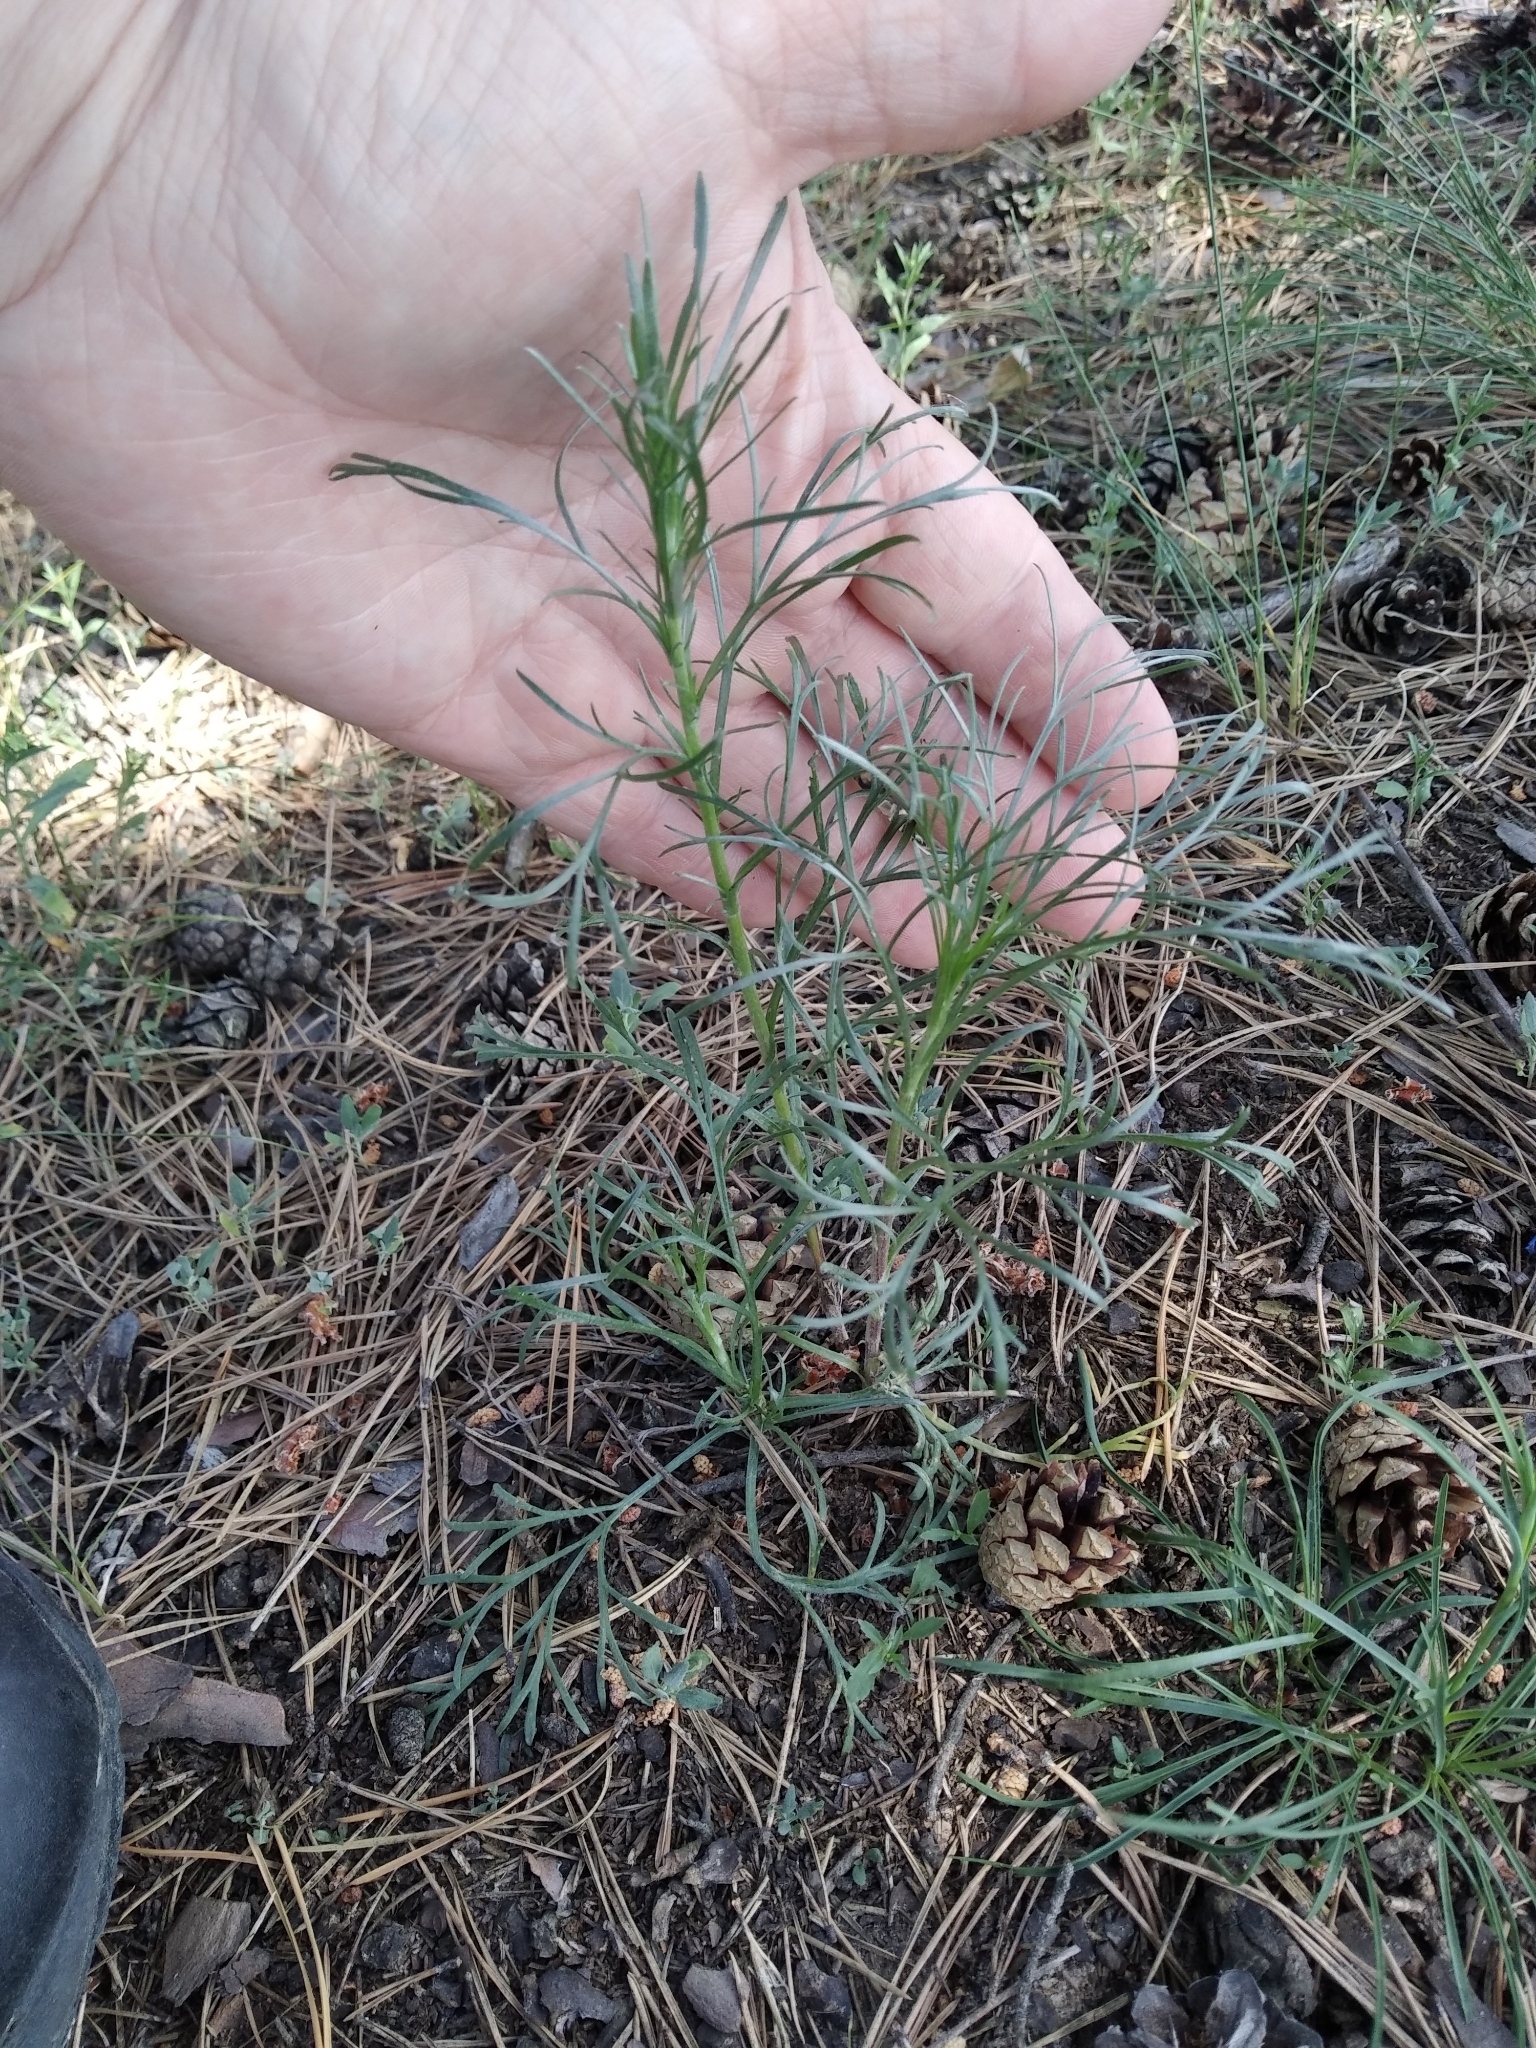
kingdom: Plantae
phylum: Tracheophyta
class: Magnoliopsida
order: Asterales
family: Asteraceae
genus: Artemisia
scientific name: Artemisia campestris
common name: Field wormwood
